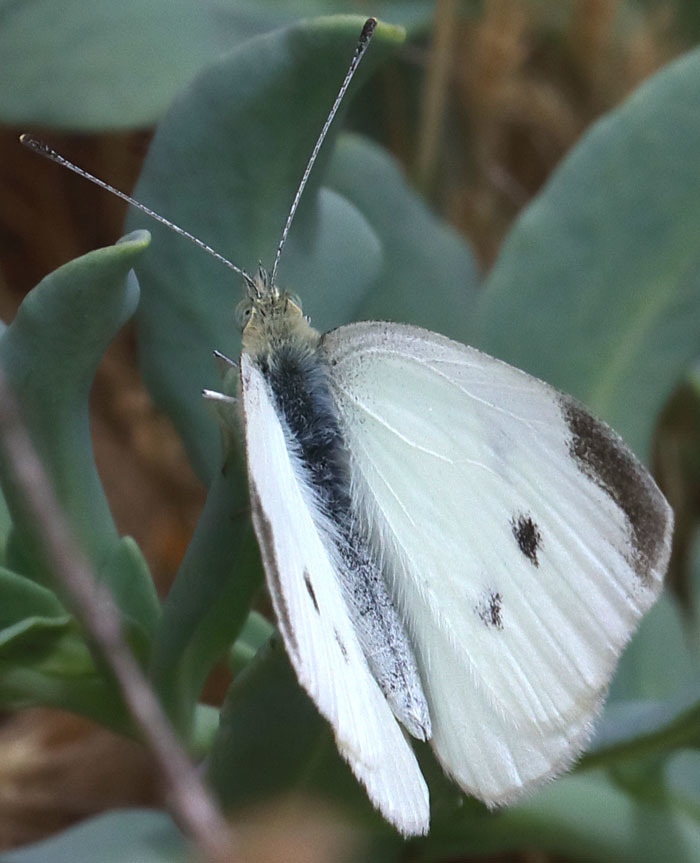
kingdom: Animalia
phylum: Arthropoda
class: Insecta
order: Lepidoptera
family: Pieridae
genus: Pieris
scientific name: Pieris rapae
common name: Small white
